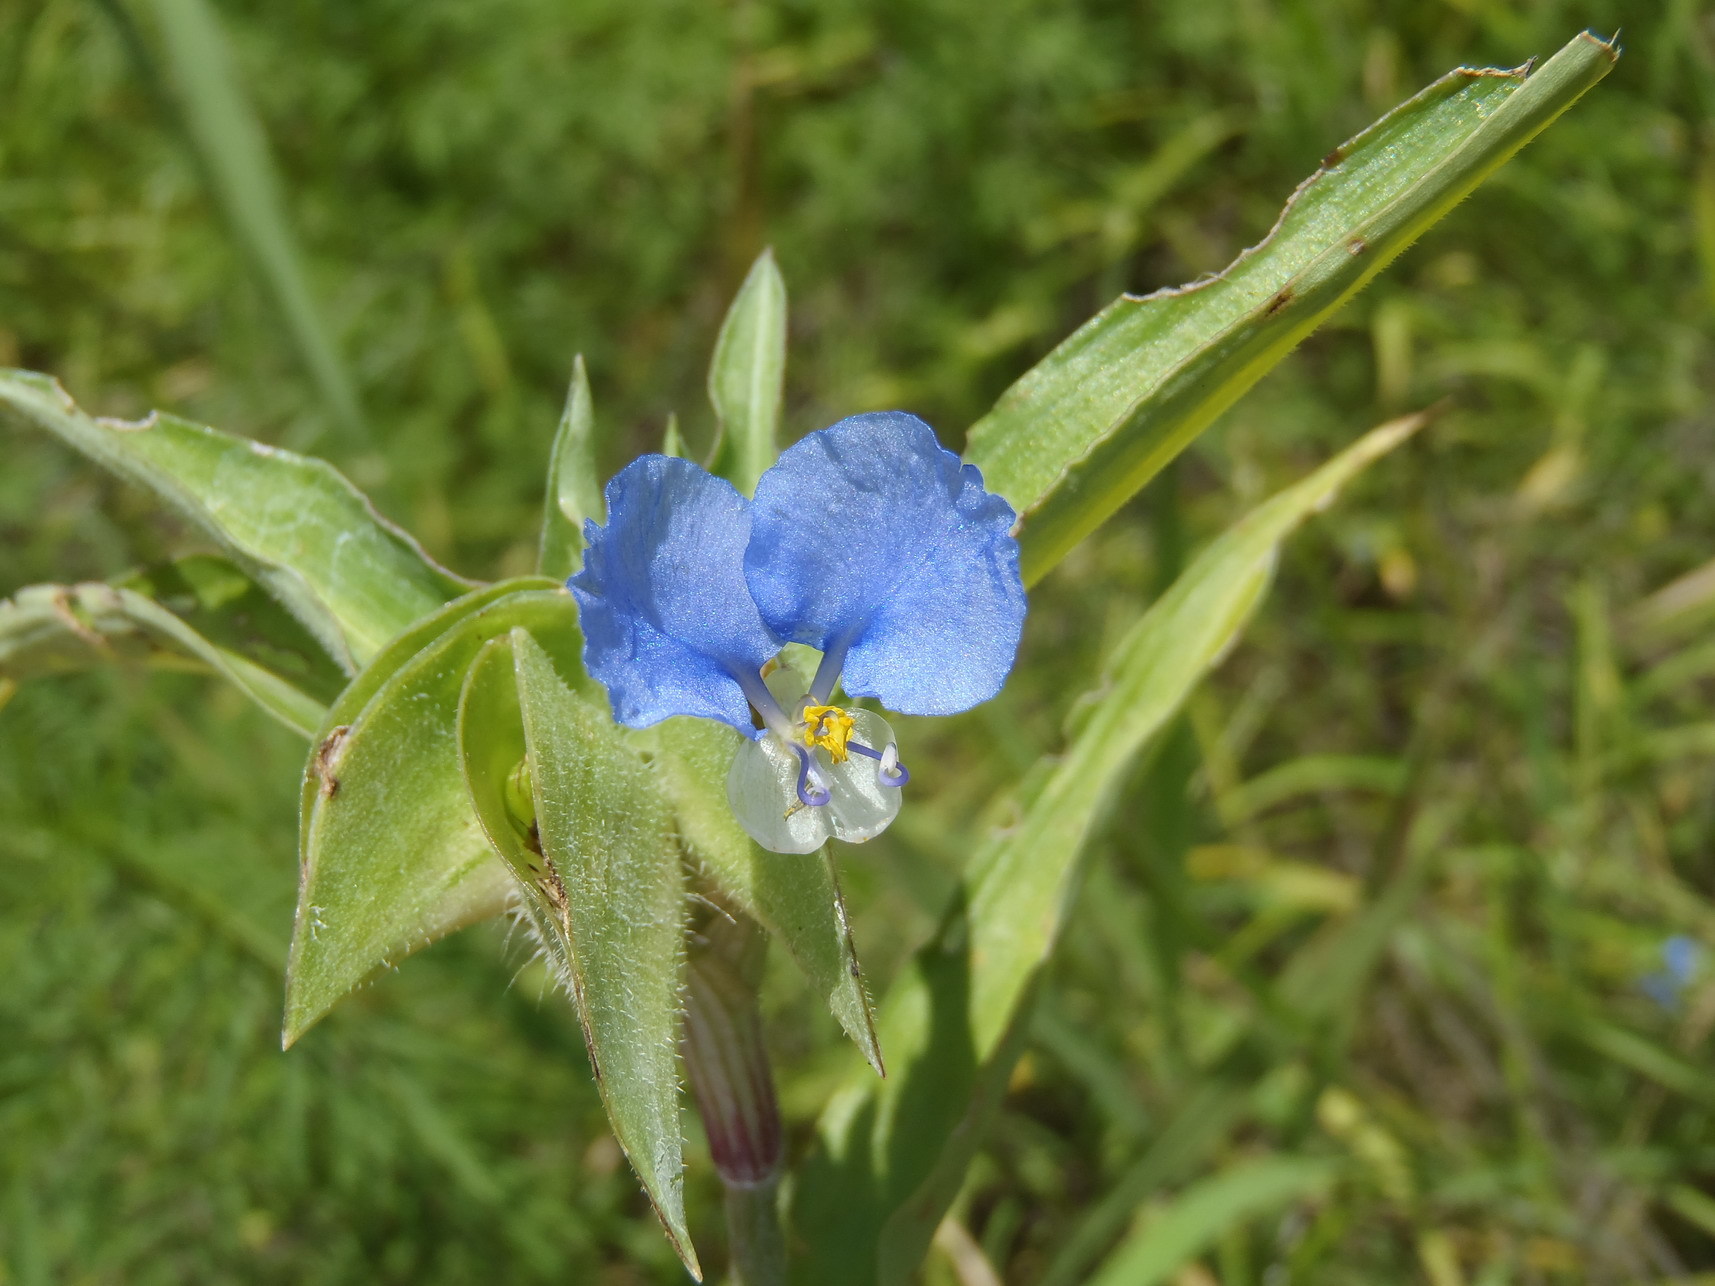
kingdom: Plantae
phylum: Tracheophyta
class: Liliopsida
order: Commelinales
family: Commelinaceae
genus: Commelina
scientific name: Commelina erecta
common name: Blousel blommetjie
